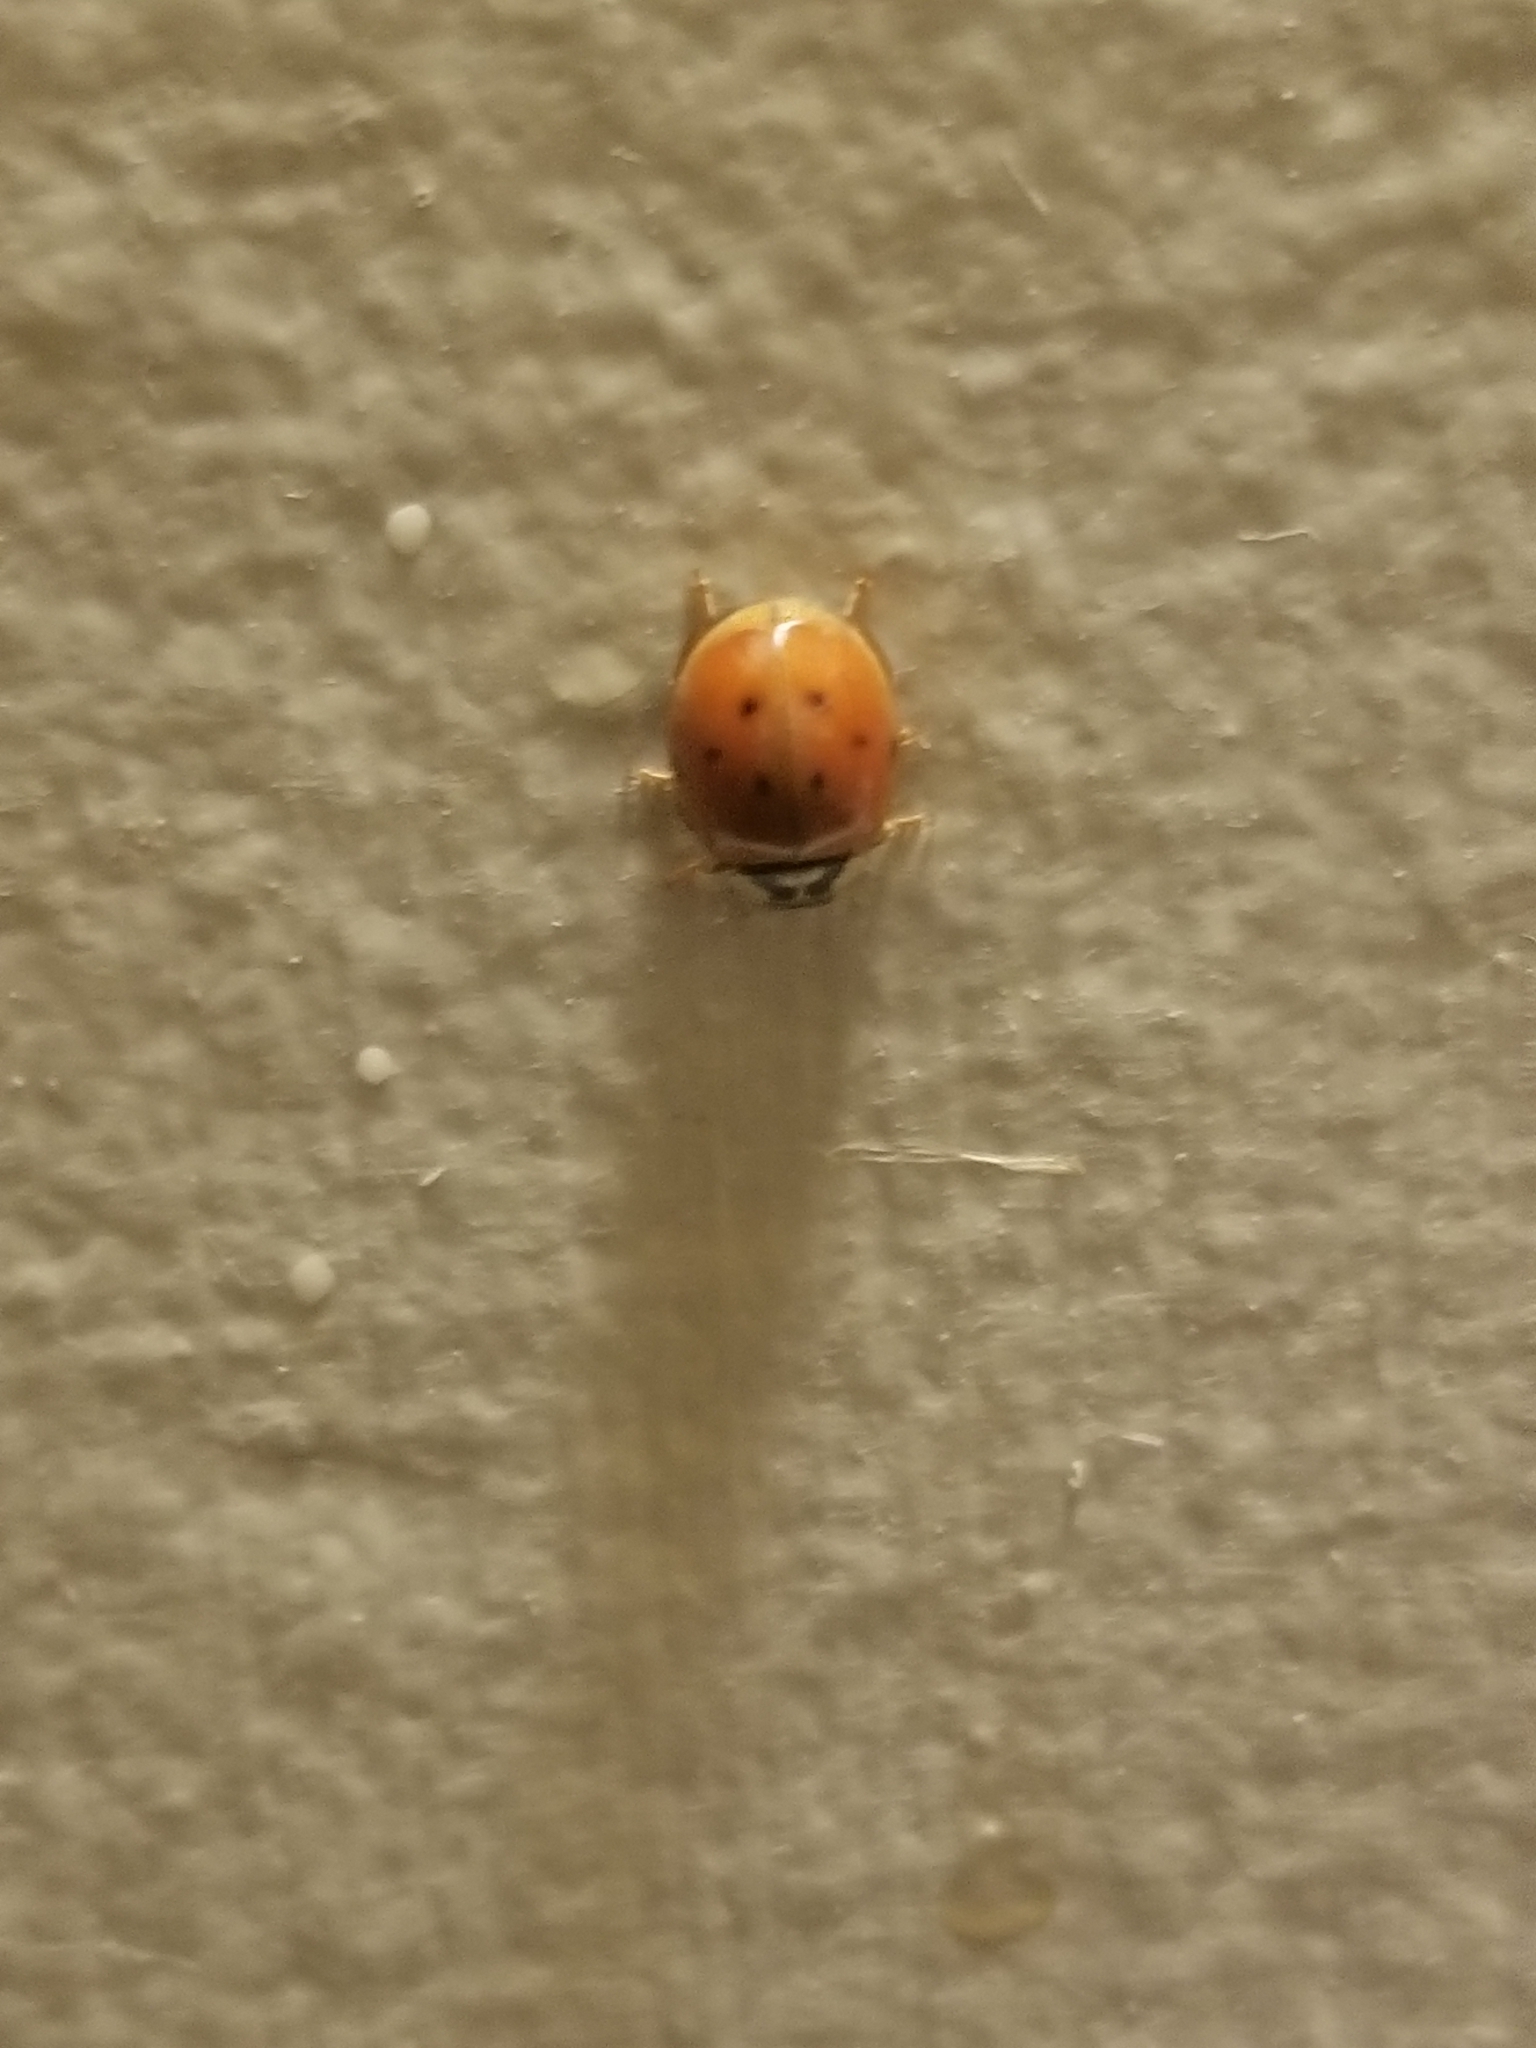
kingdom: Animalia
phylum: Arthropoda
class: Insecta
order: Coleoptera
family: Coccinellidae
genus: Harmonia
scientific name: Harmonia axyridis
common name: Harlequin ladybird
